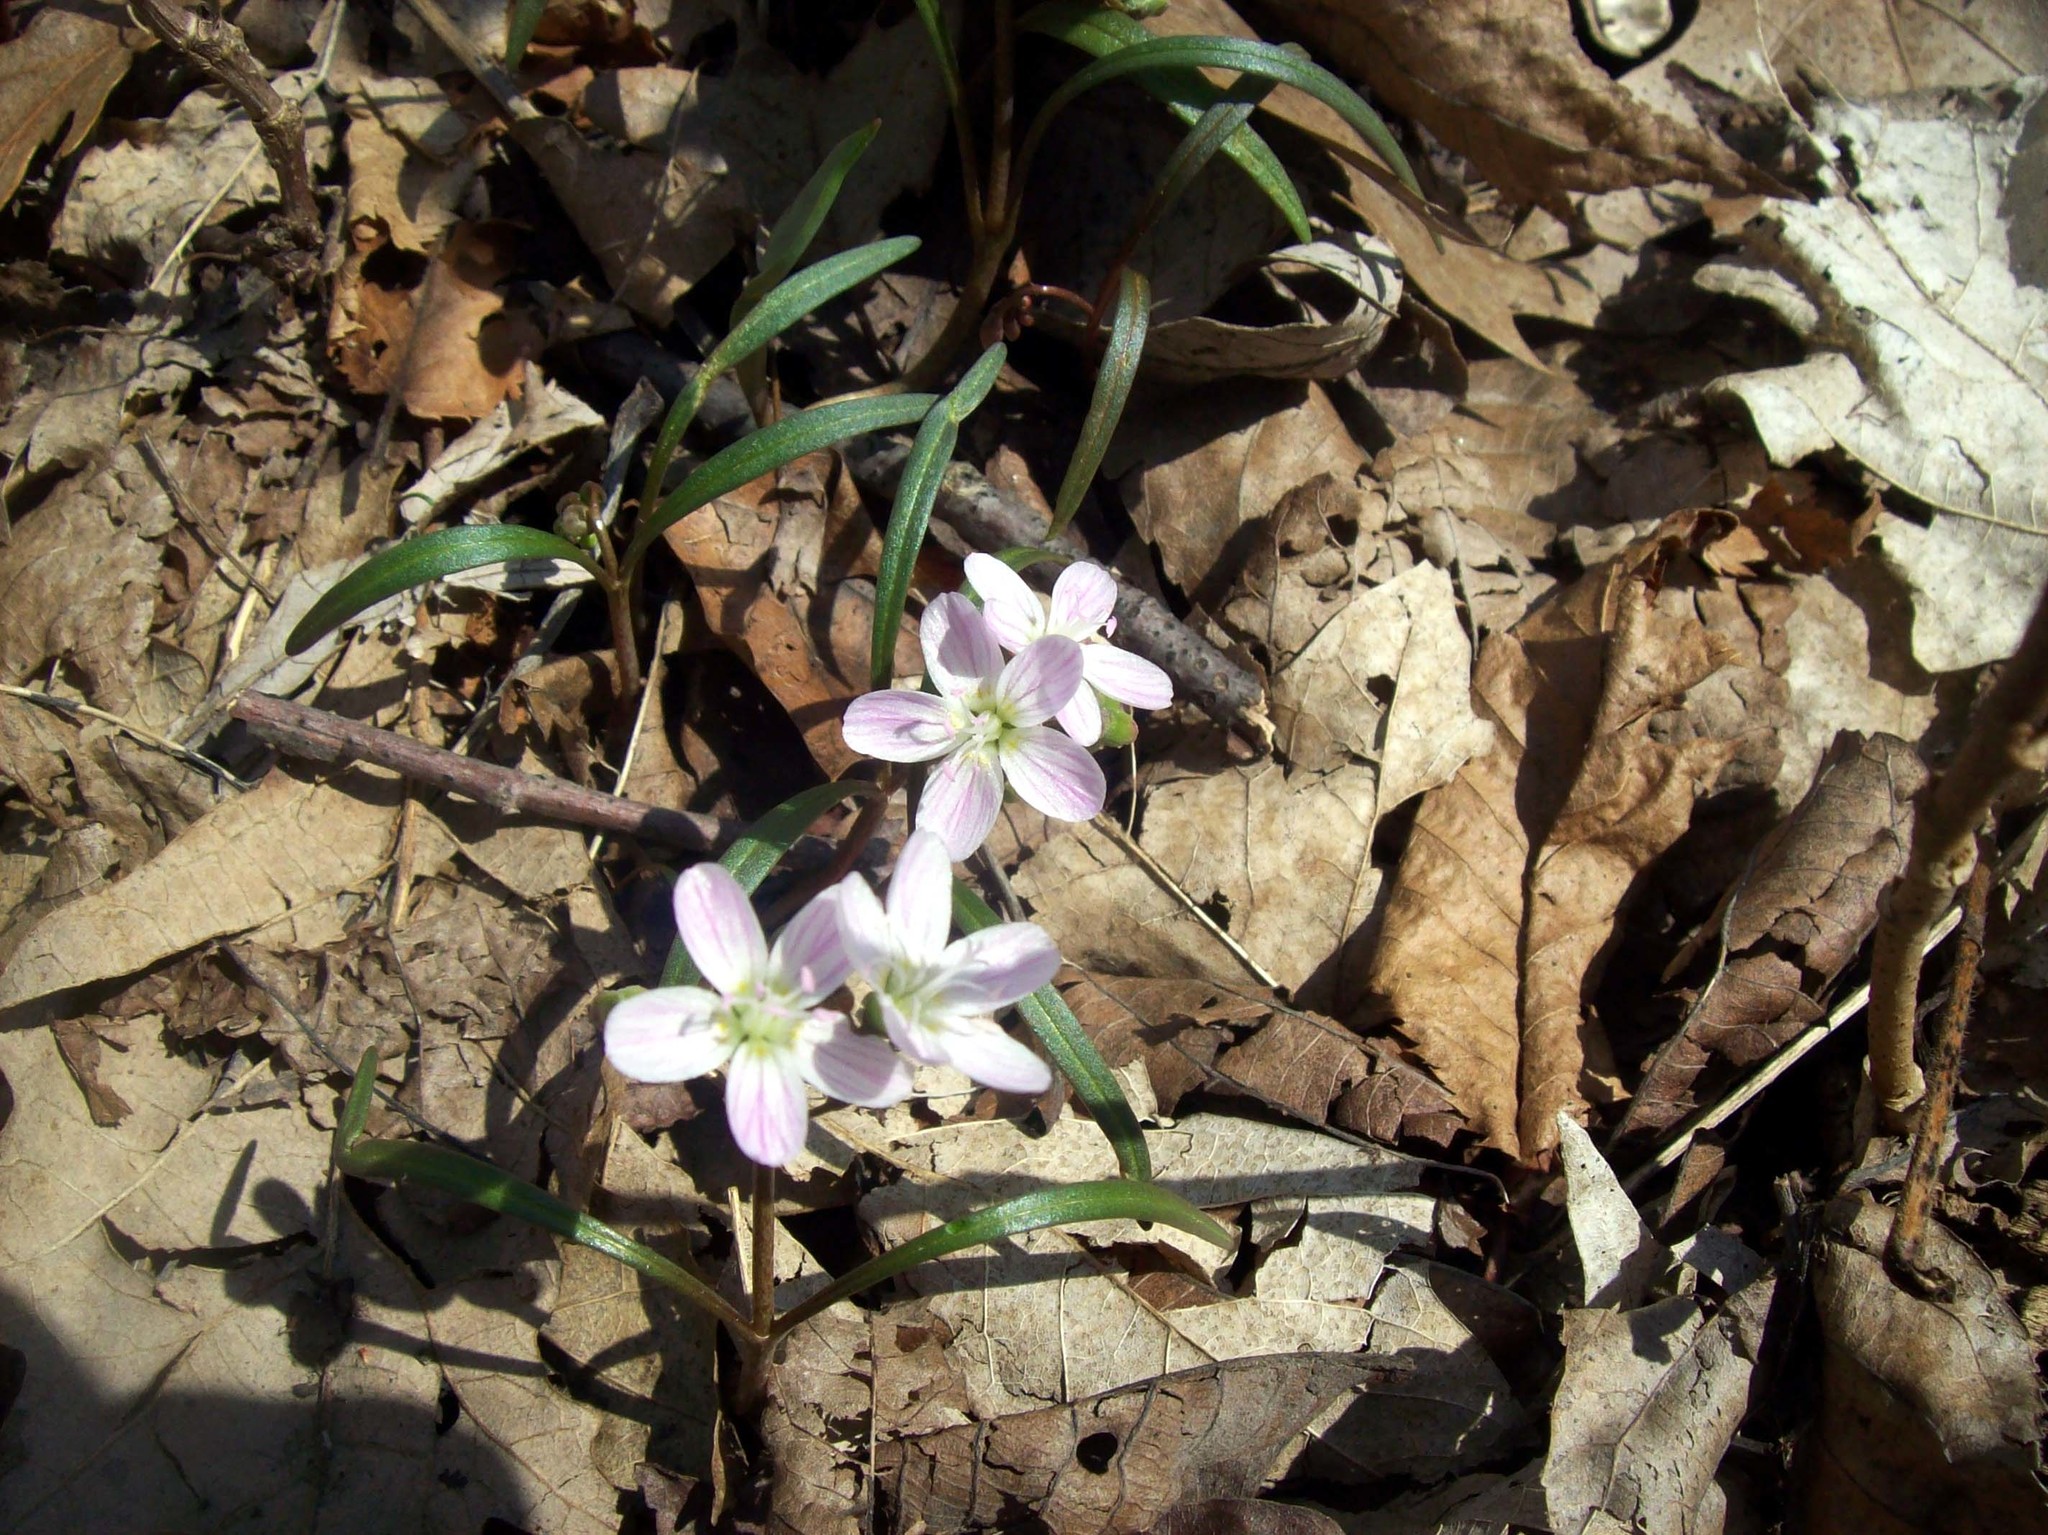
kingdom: Plantae
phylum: Tracheophyta
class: Magnoliopsida
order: Caryophyllales
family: Montiaceae
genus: Claytonia
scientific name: Claytonia virginica
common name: Virginia springbeauty
